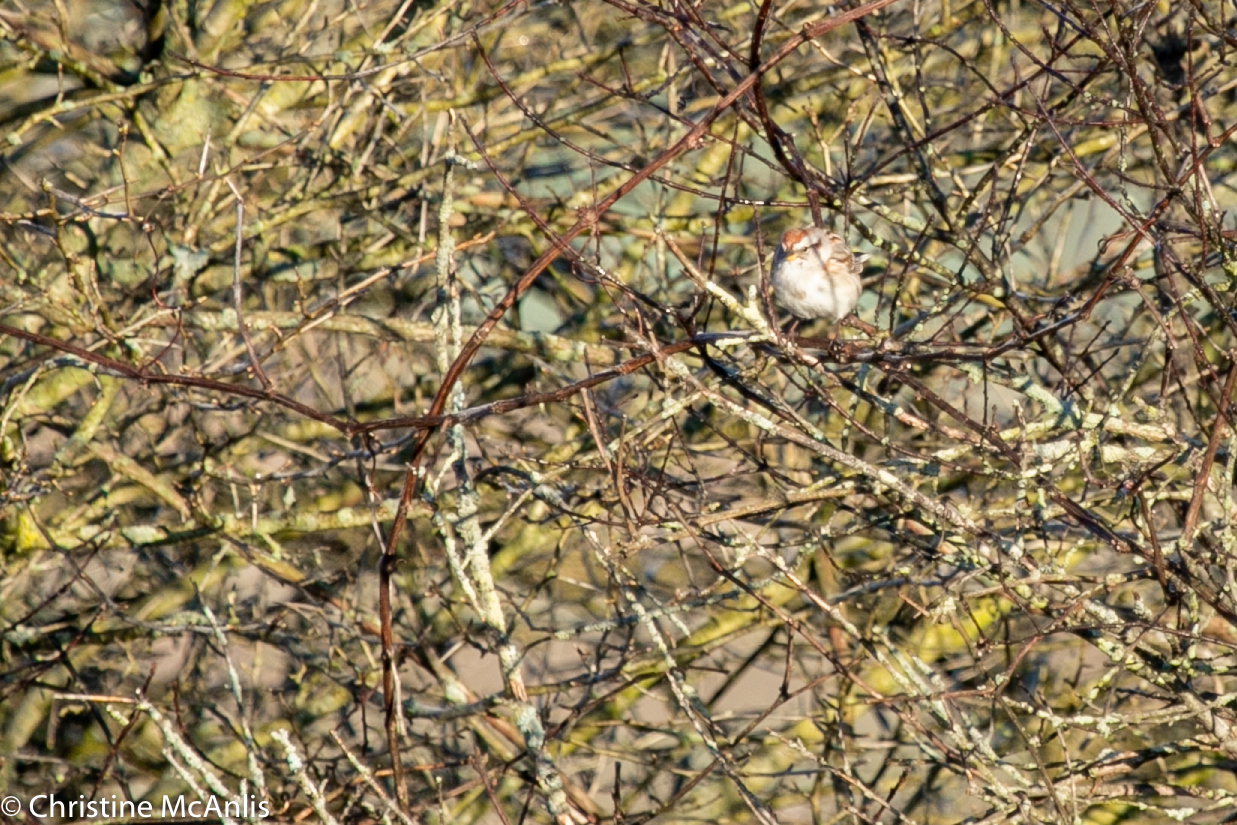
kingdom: Animalia
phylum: Chordata
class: Aves
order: Passeriformes
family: Passerellidae
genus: Spizelloides
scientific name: Spizelloides arborea
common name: American tree sparrow
